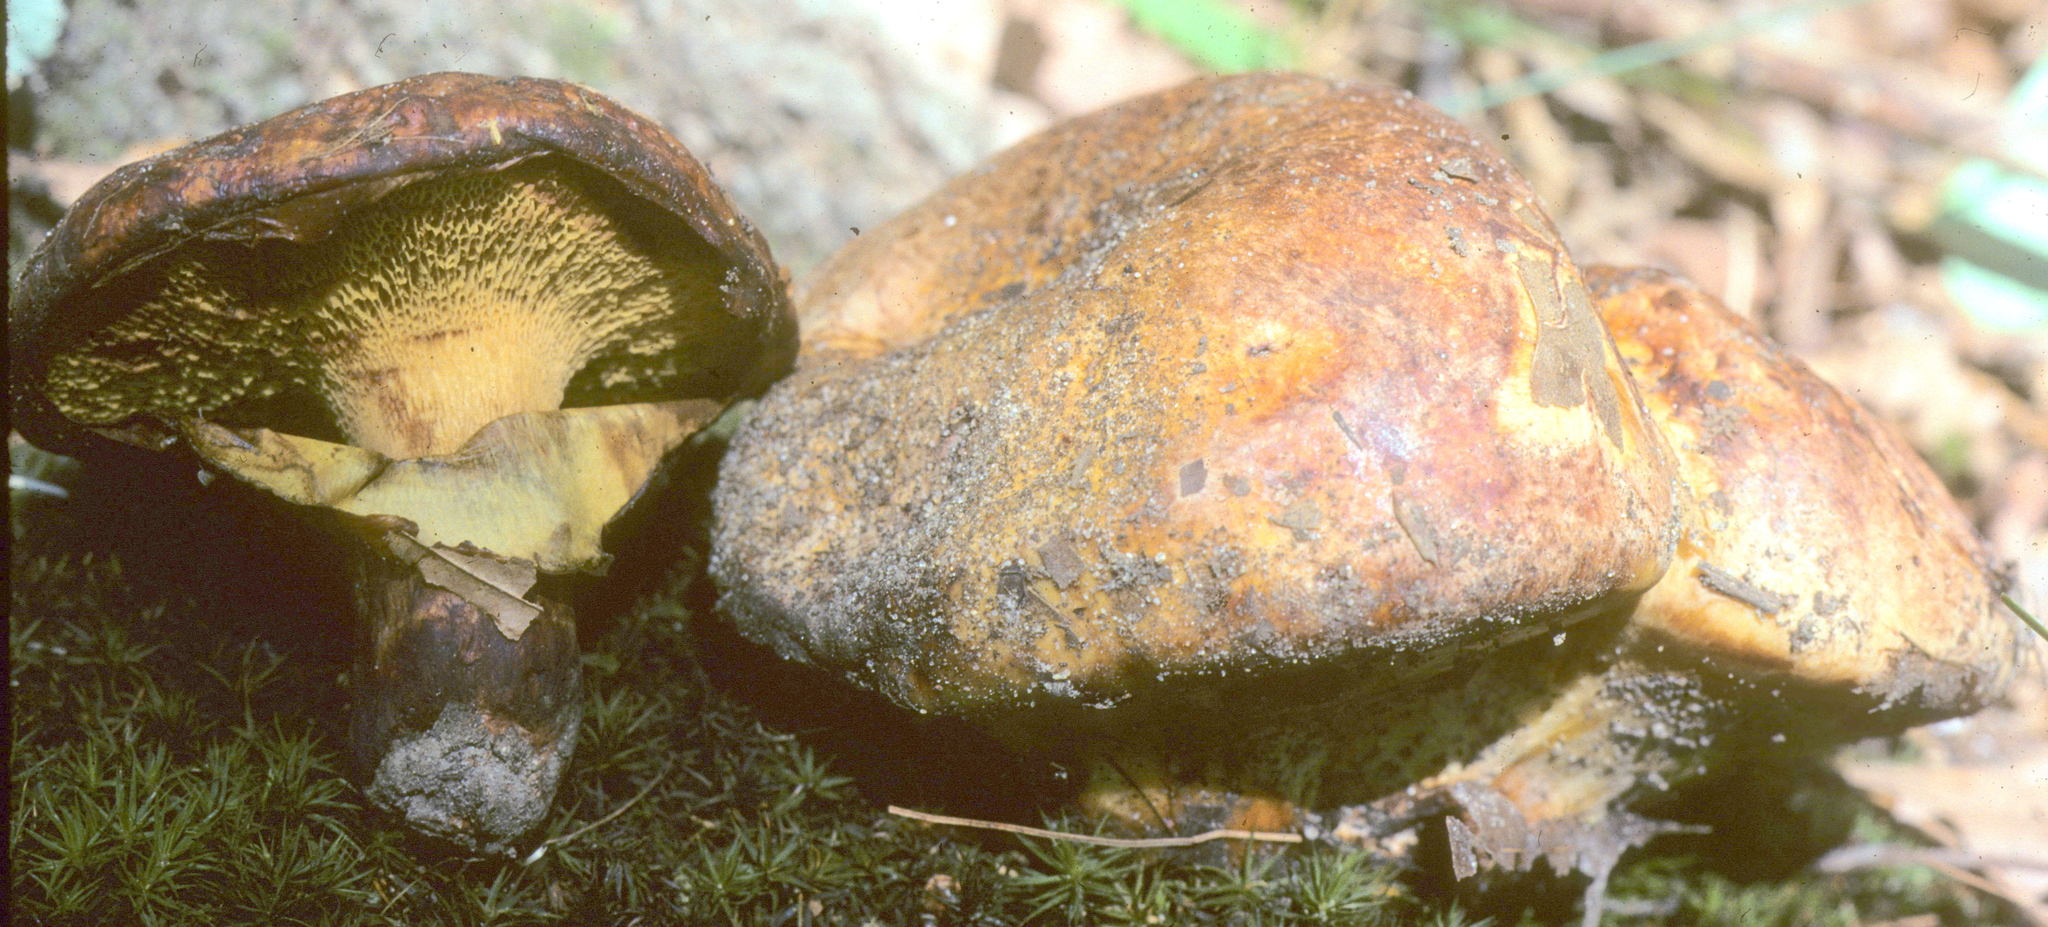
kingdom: Fungi
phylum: Basidiomycota
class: Agaricomycetes
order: Boletales
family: Paxillaceae
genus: Paragyrodon
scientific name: Paragyrodon sphaerosporus
